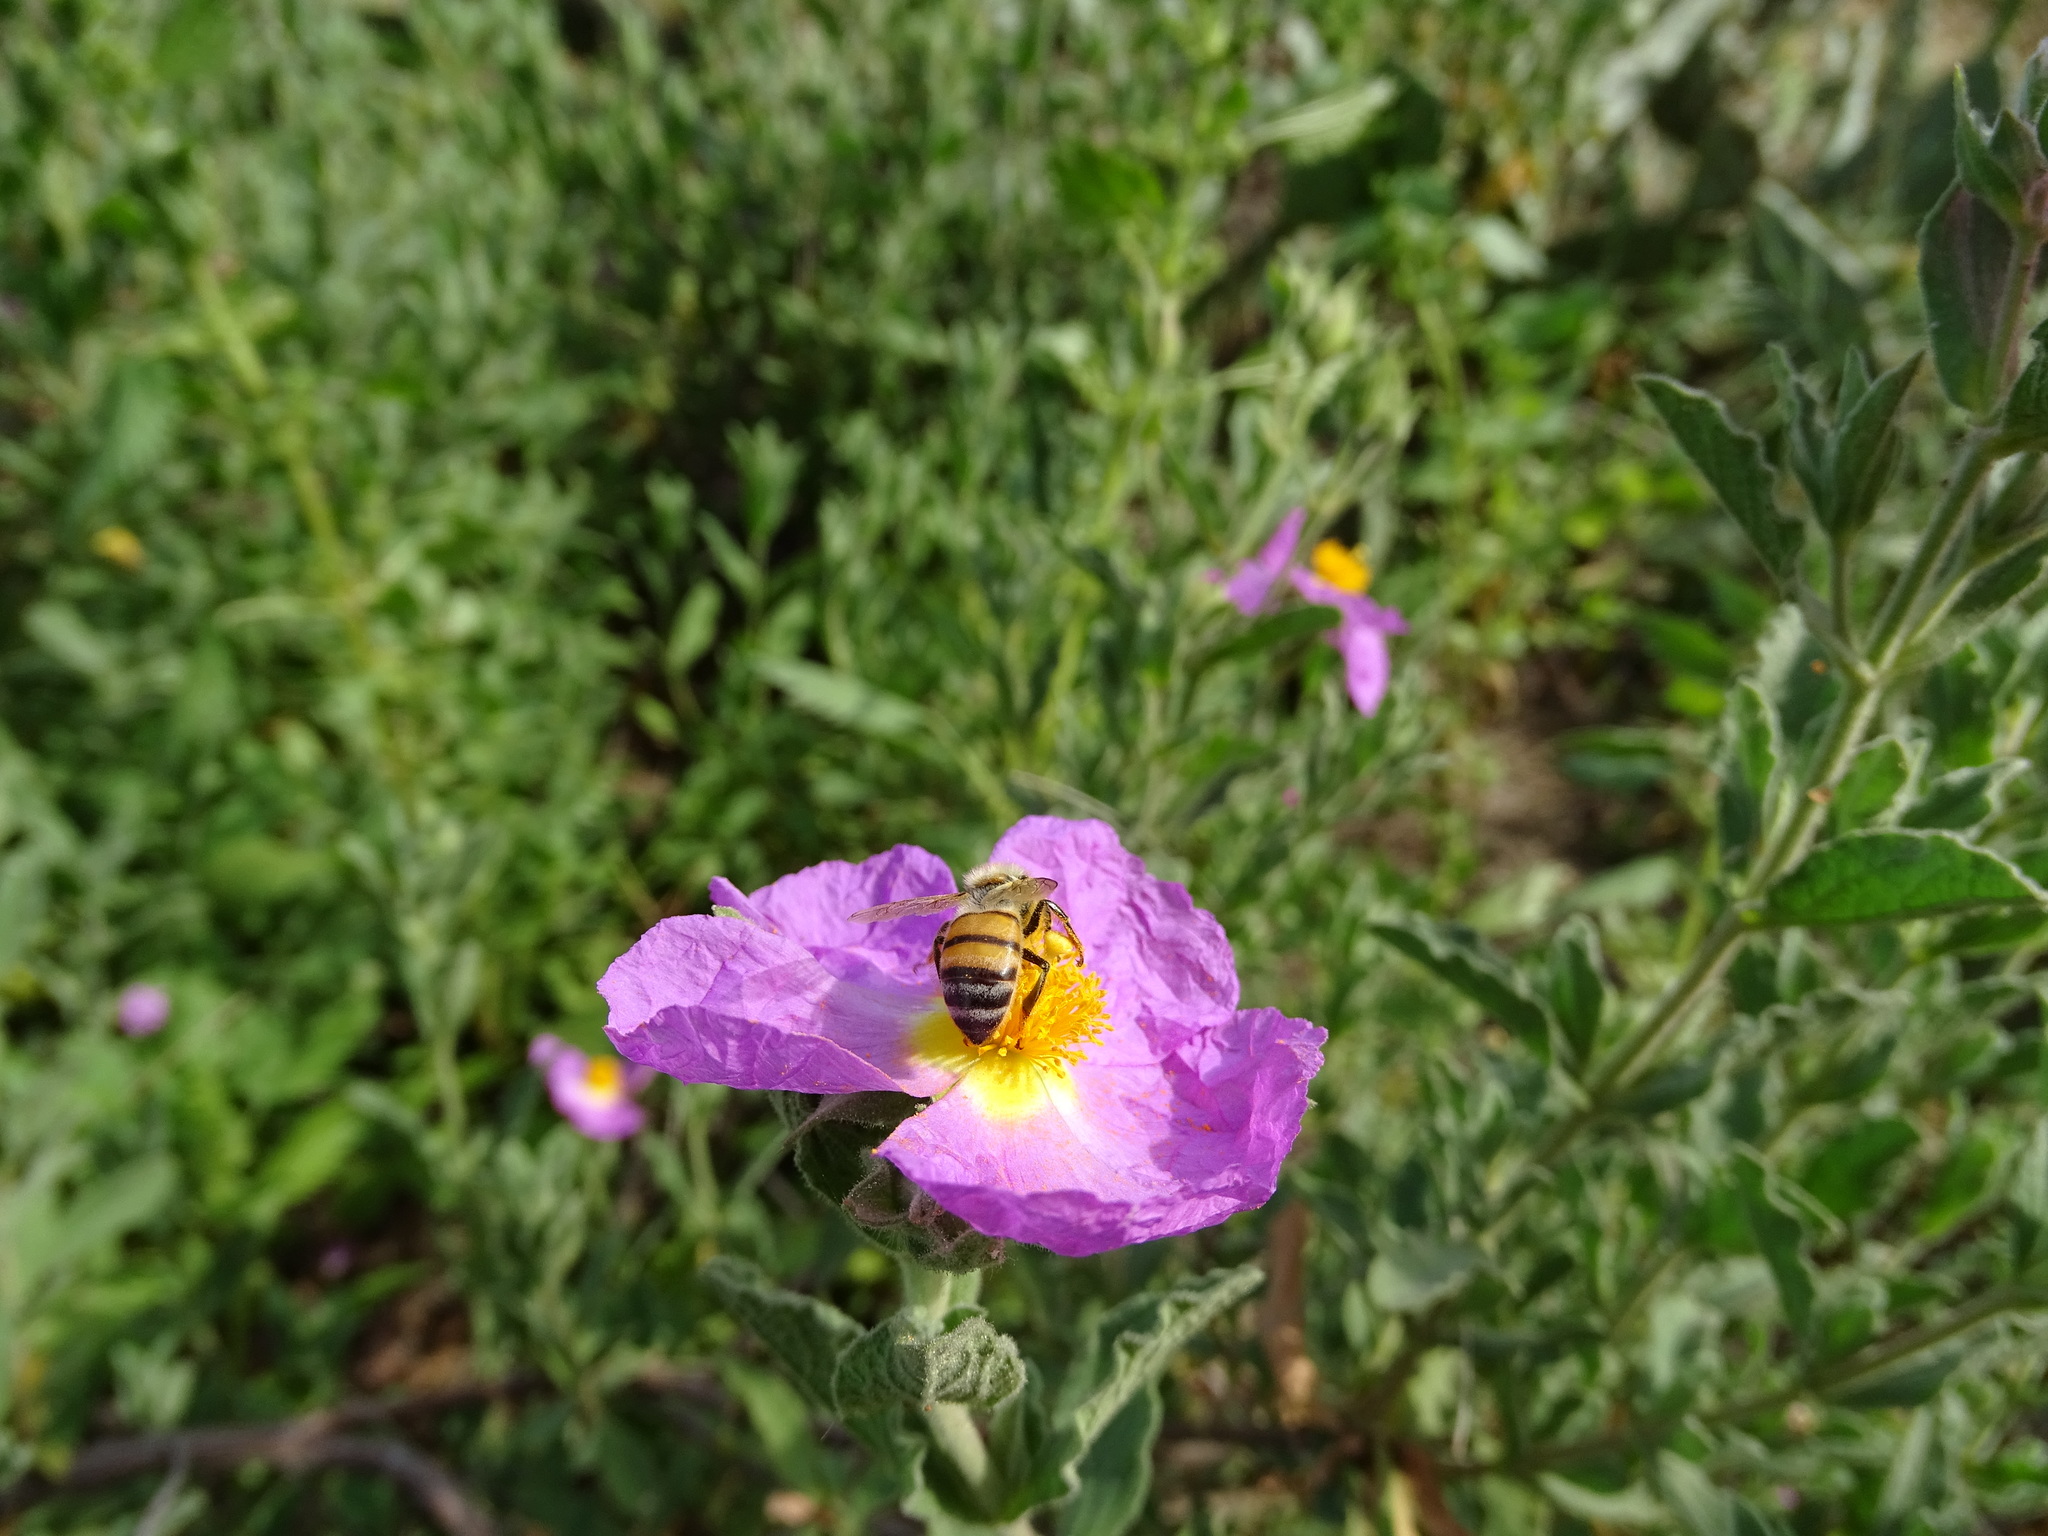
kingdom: Animalia
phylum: Arthropoda
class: Insecta
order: Hymenoptera
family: Apidae
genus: Apis
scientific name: Apis mellifera
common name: Honey bee
